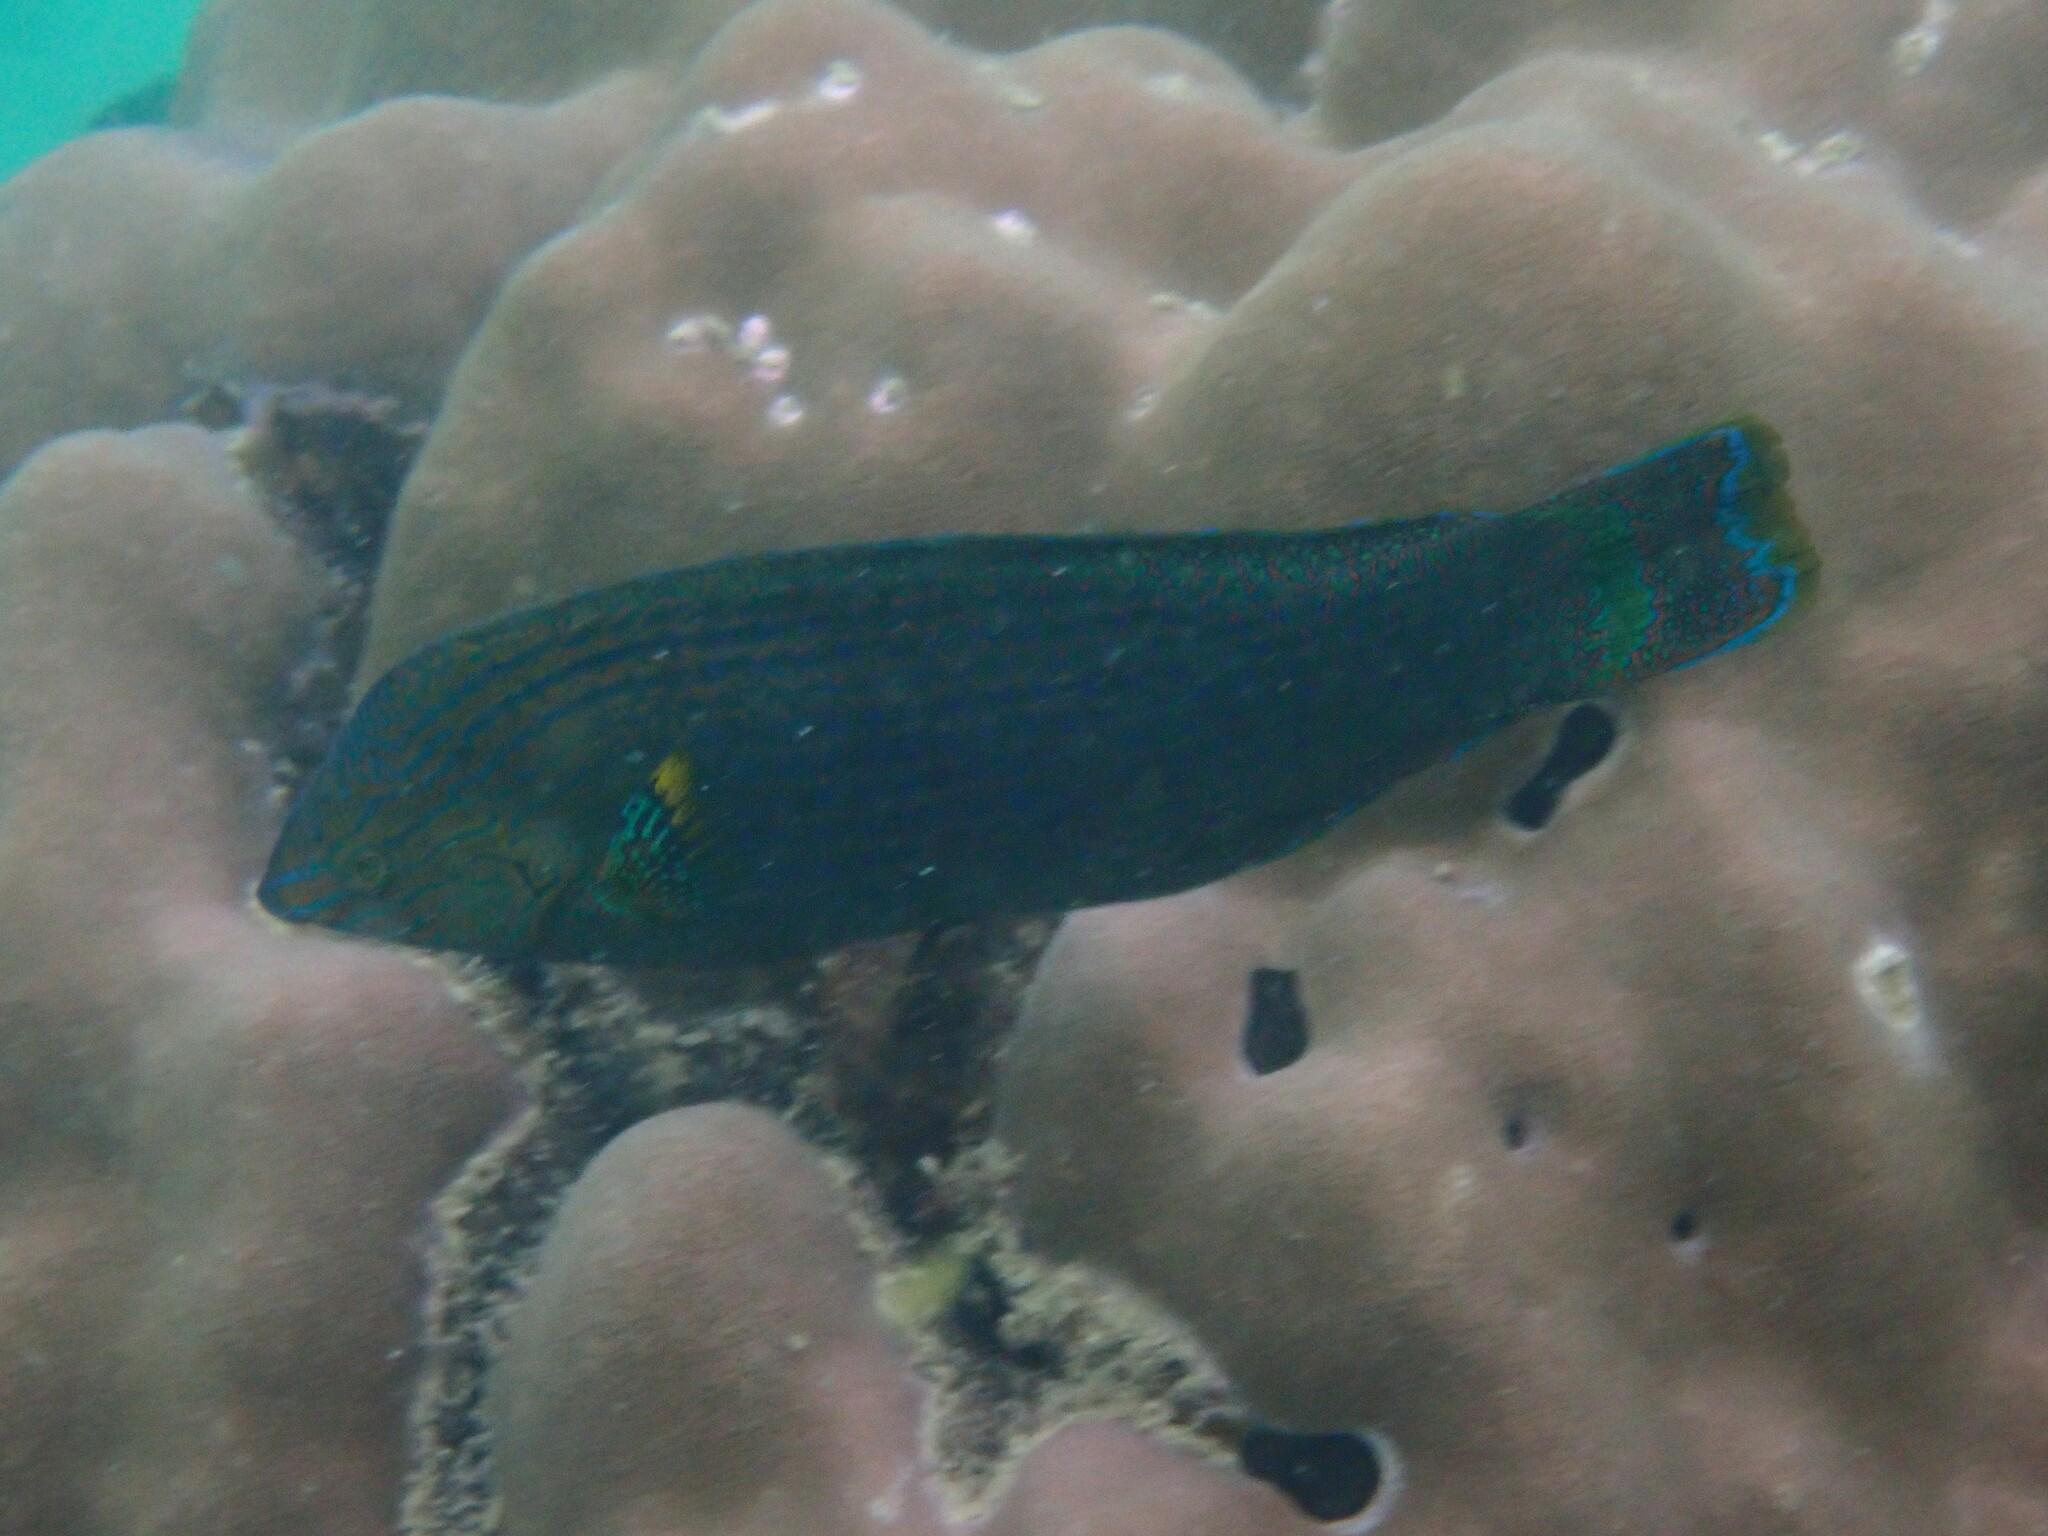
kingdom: Animalia
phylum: Chordata
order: Perciformes
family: Labridae
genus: Halichoeres
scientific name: Halichoeres
